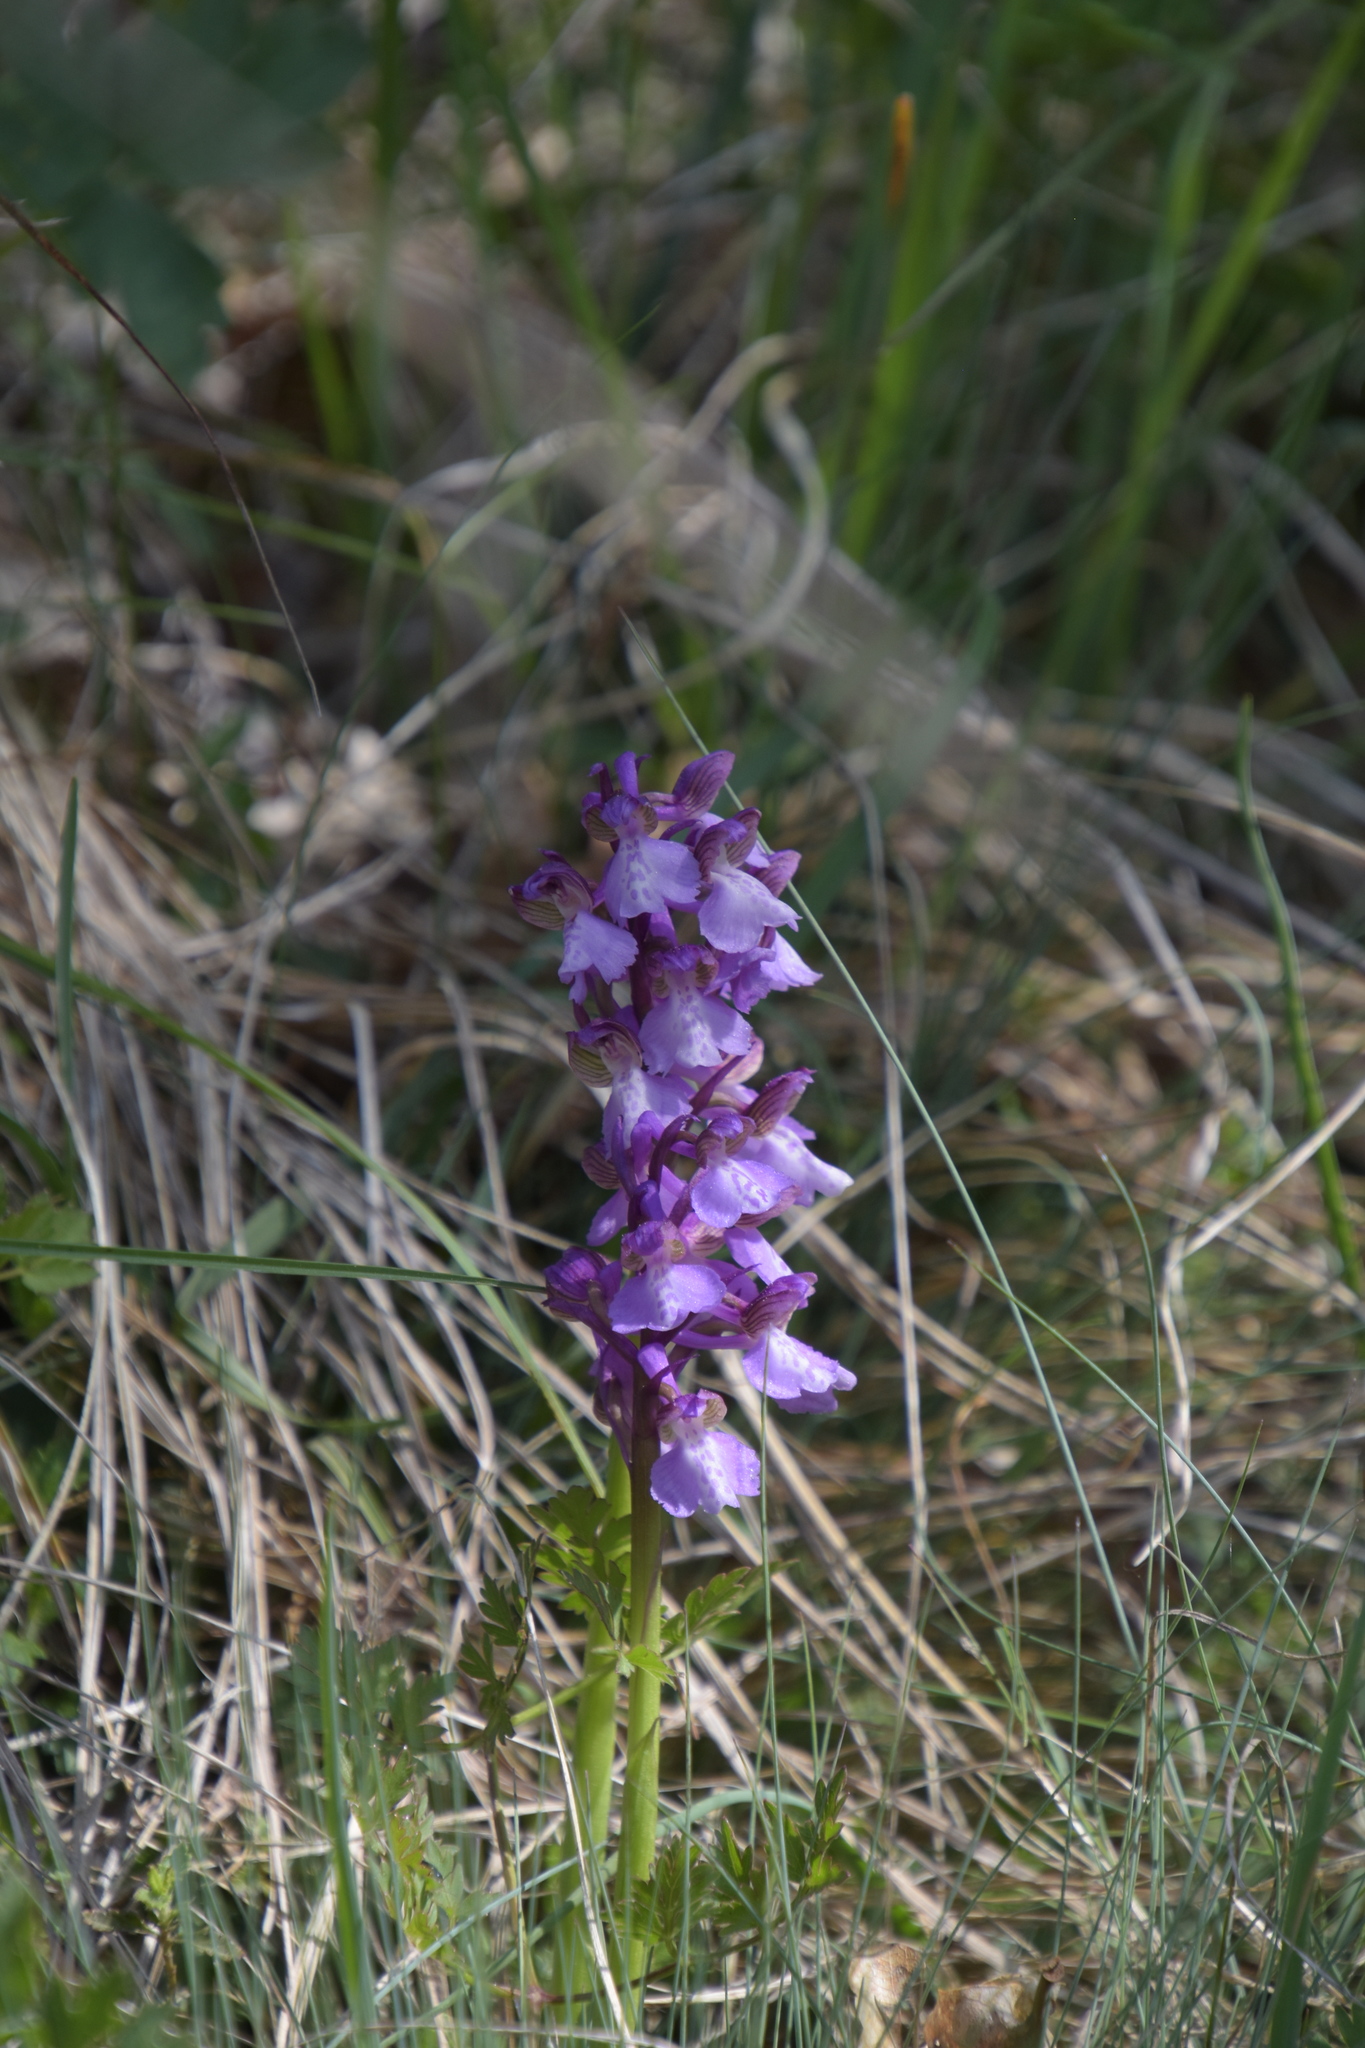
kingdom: Plantae
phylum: Tracheophyta
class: Liliopsida
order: Asparagales
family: Orchidaceae
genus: Anacamptis
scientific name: Anacamptis morio
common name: Green-winged orchid
